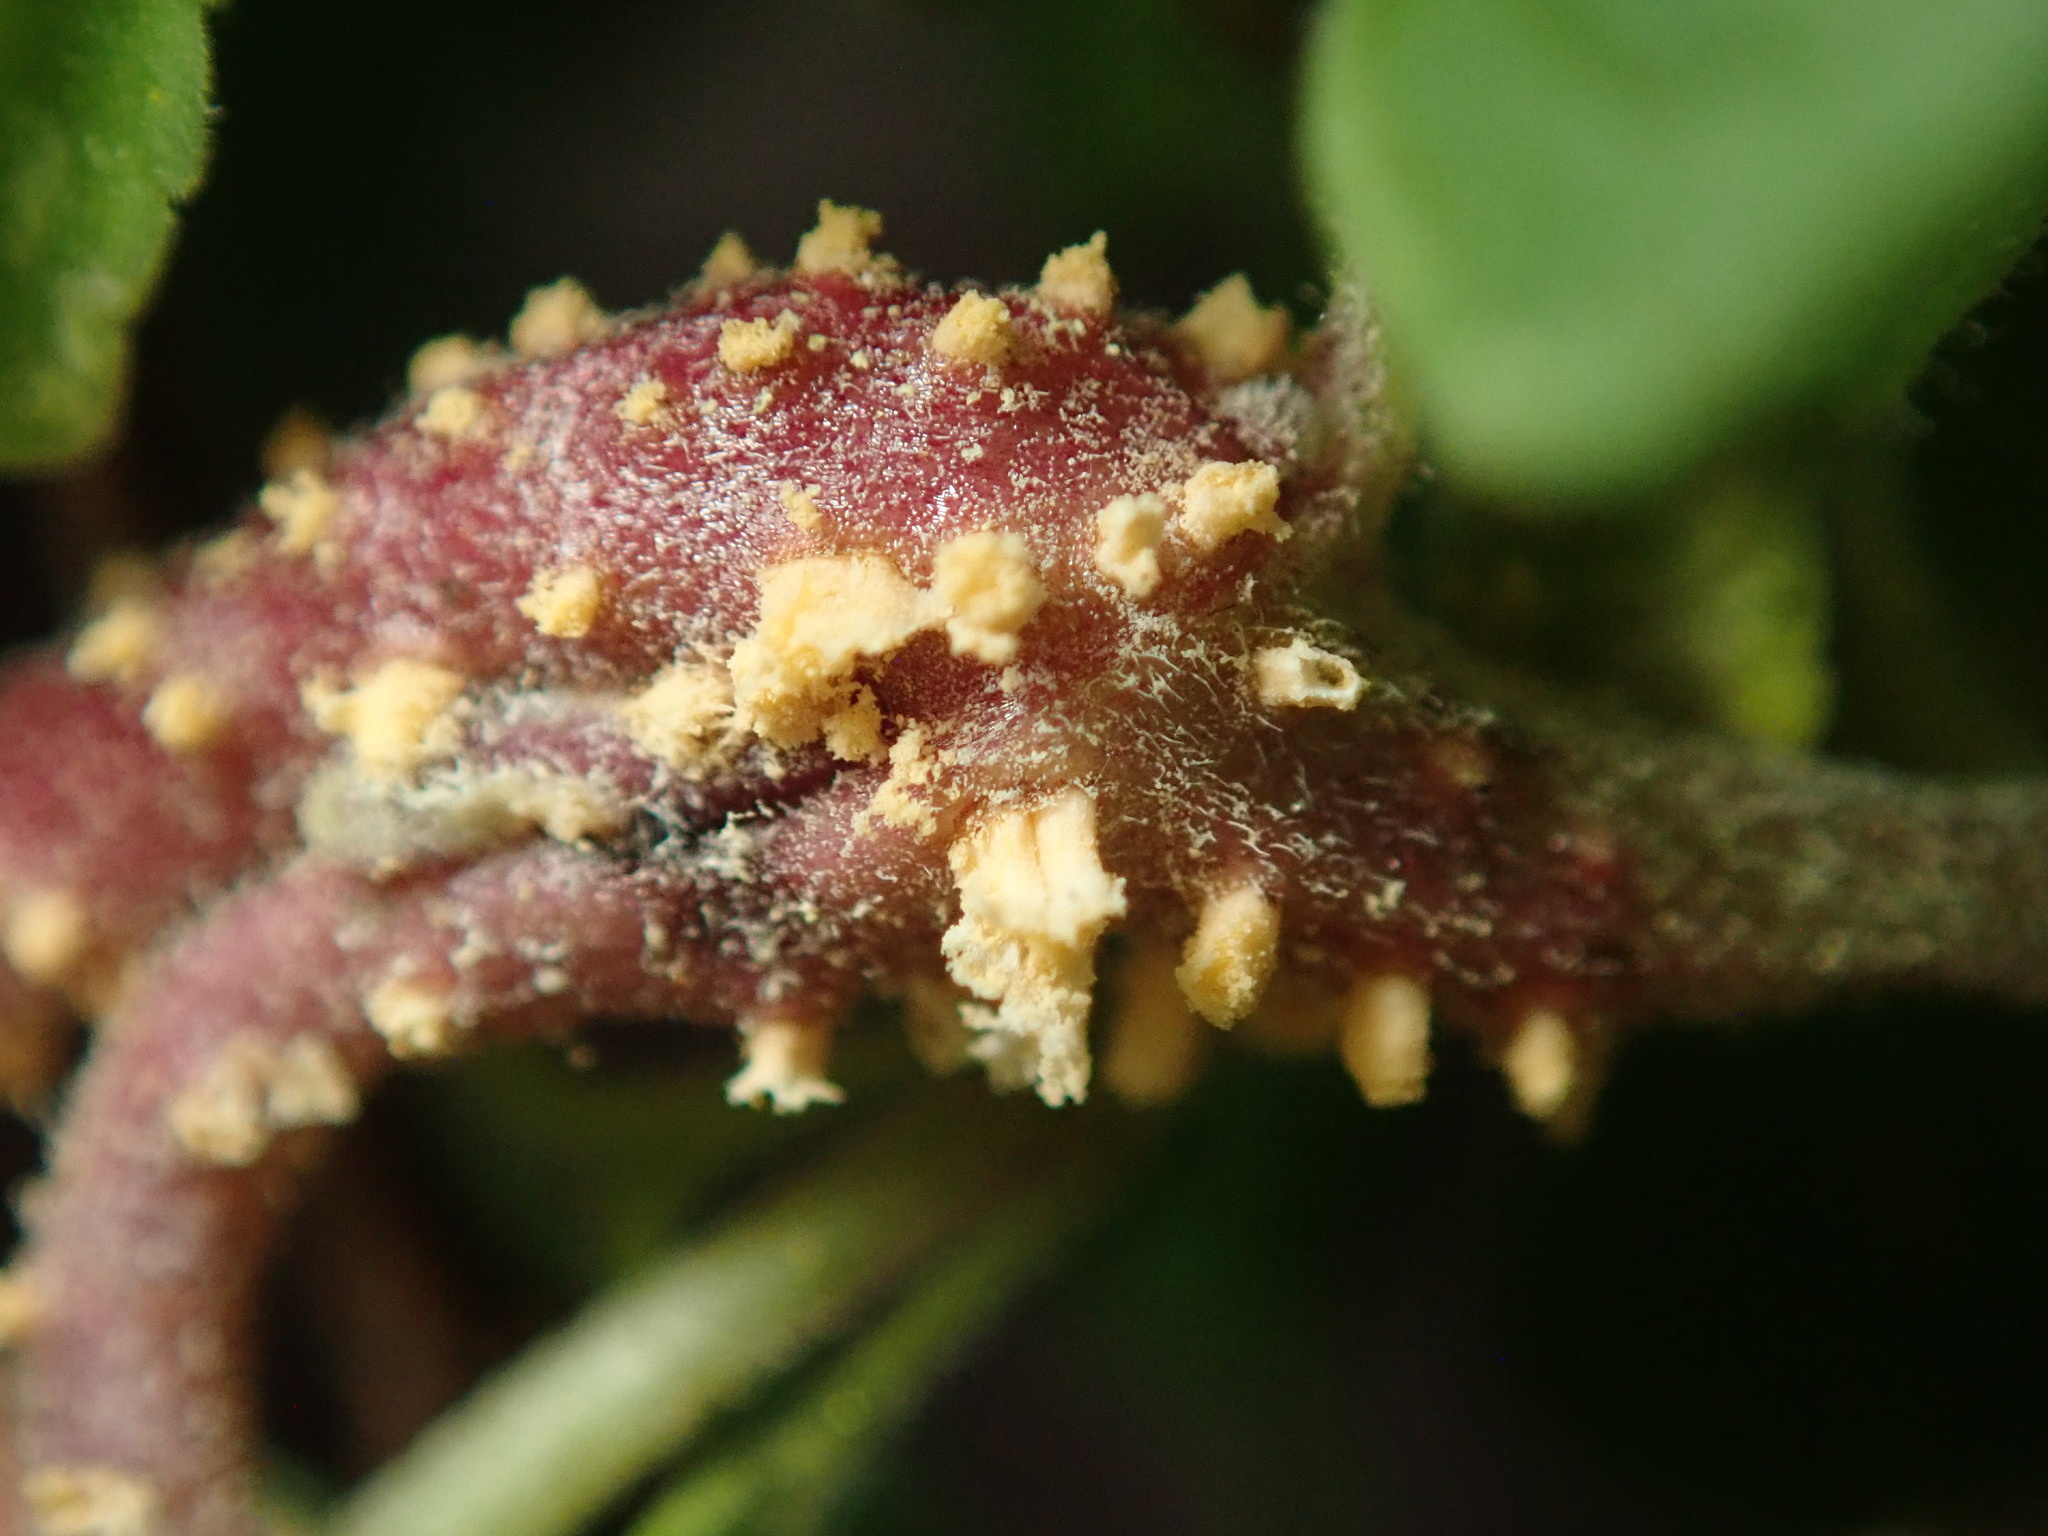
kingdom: Fungi
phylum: Basidiomycota
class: Pucciniomycetes
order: Pucciniales
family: Pucciniaceae
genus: Puccinia
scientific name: Puccinia menthae
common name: Mint rust
